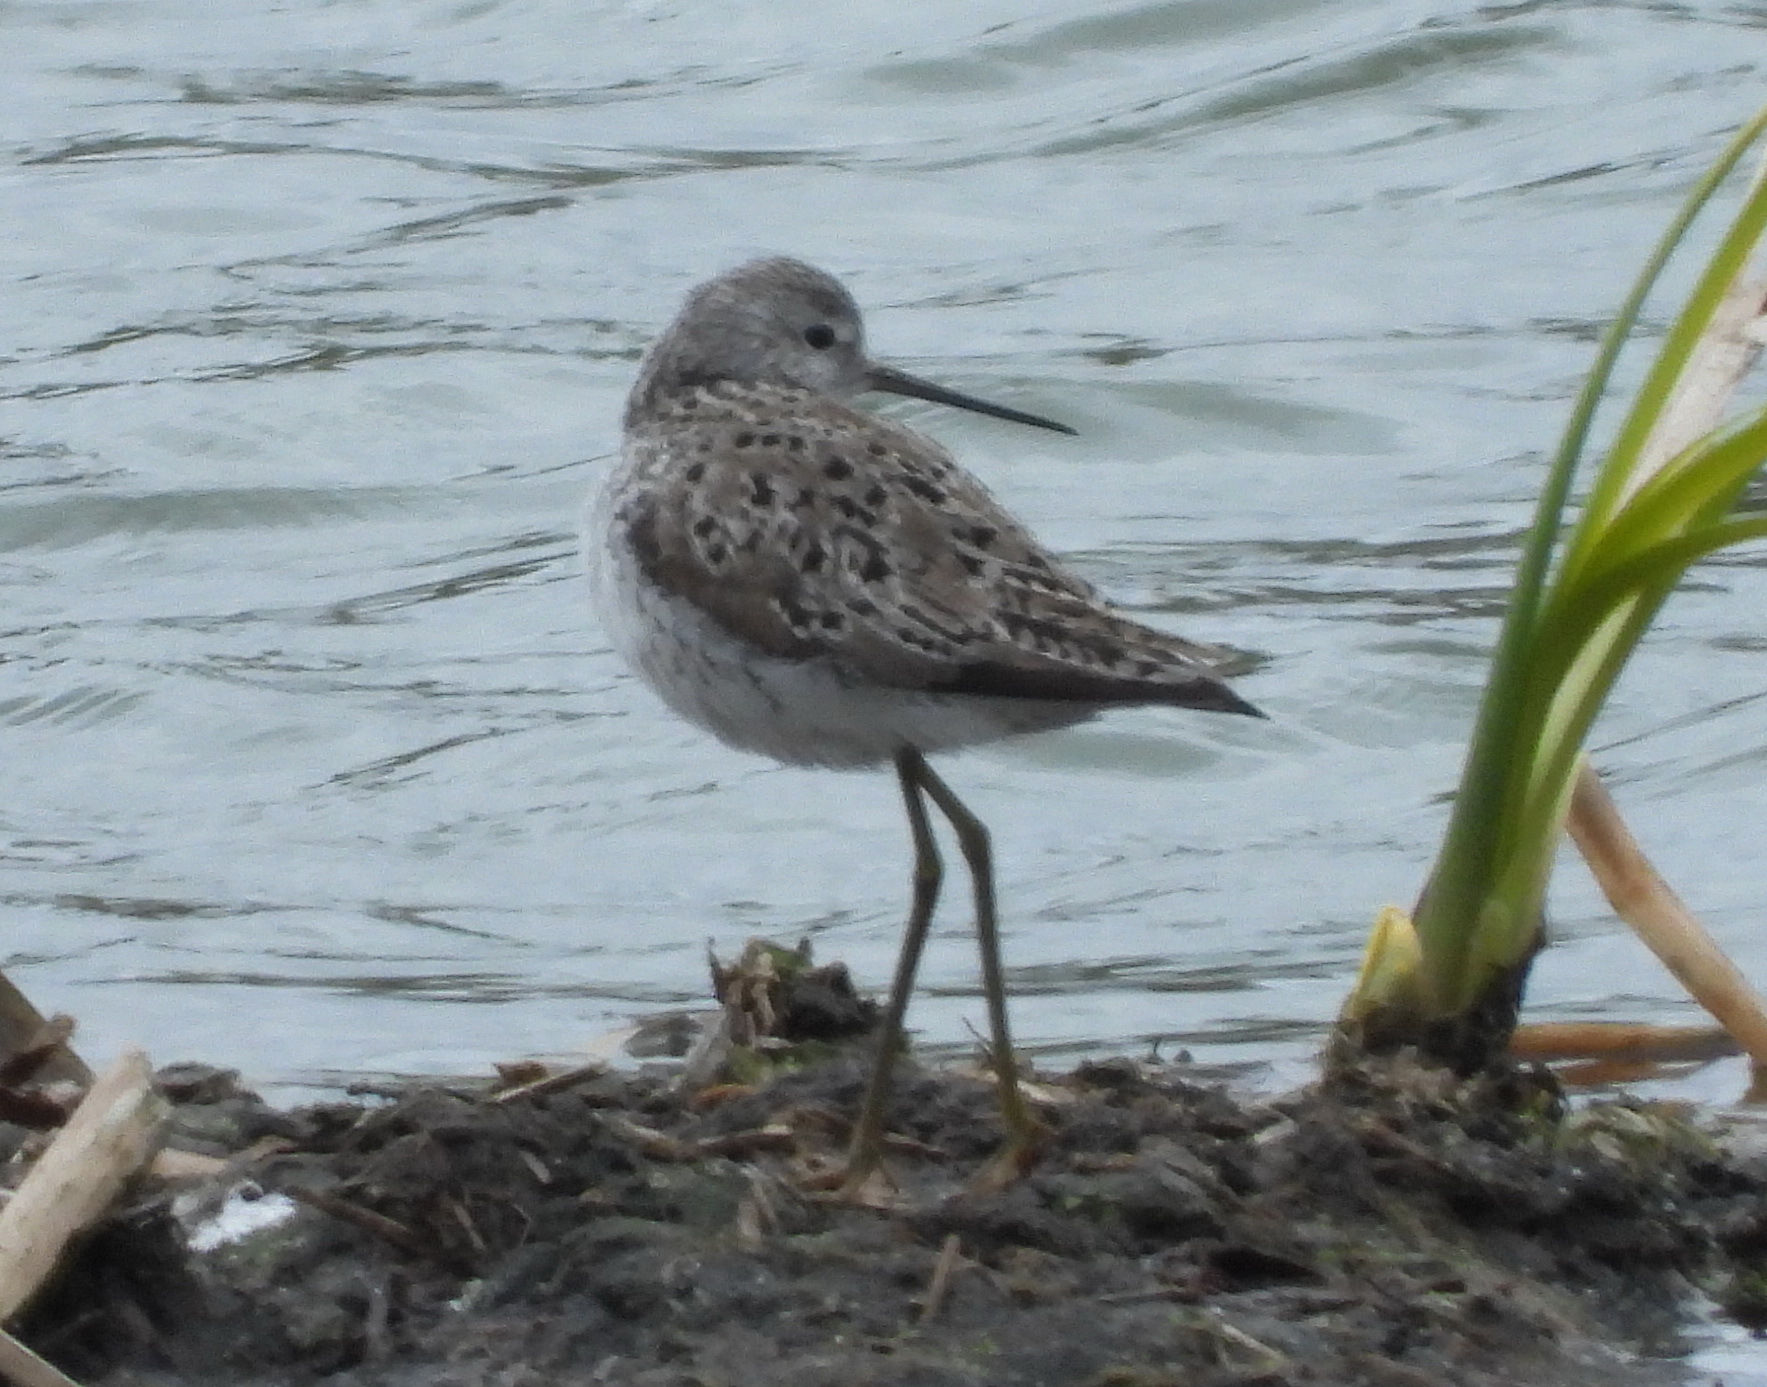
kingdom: Animalia
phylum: Chordata
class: Aves
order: Charadriiformes
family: Scolopacidae
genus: Tringa
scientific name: Tringa stagnatilis
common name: Marsh sandpiper
